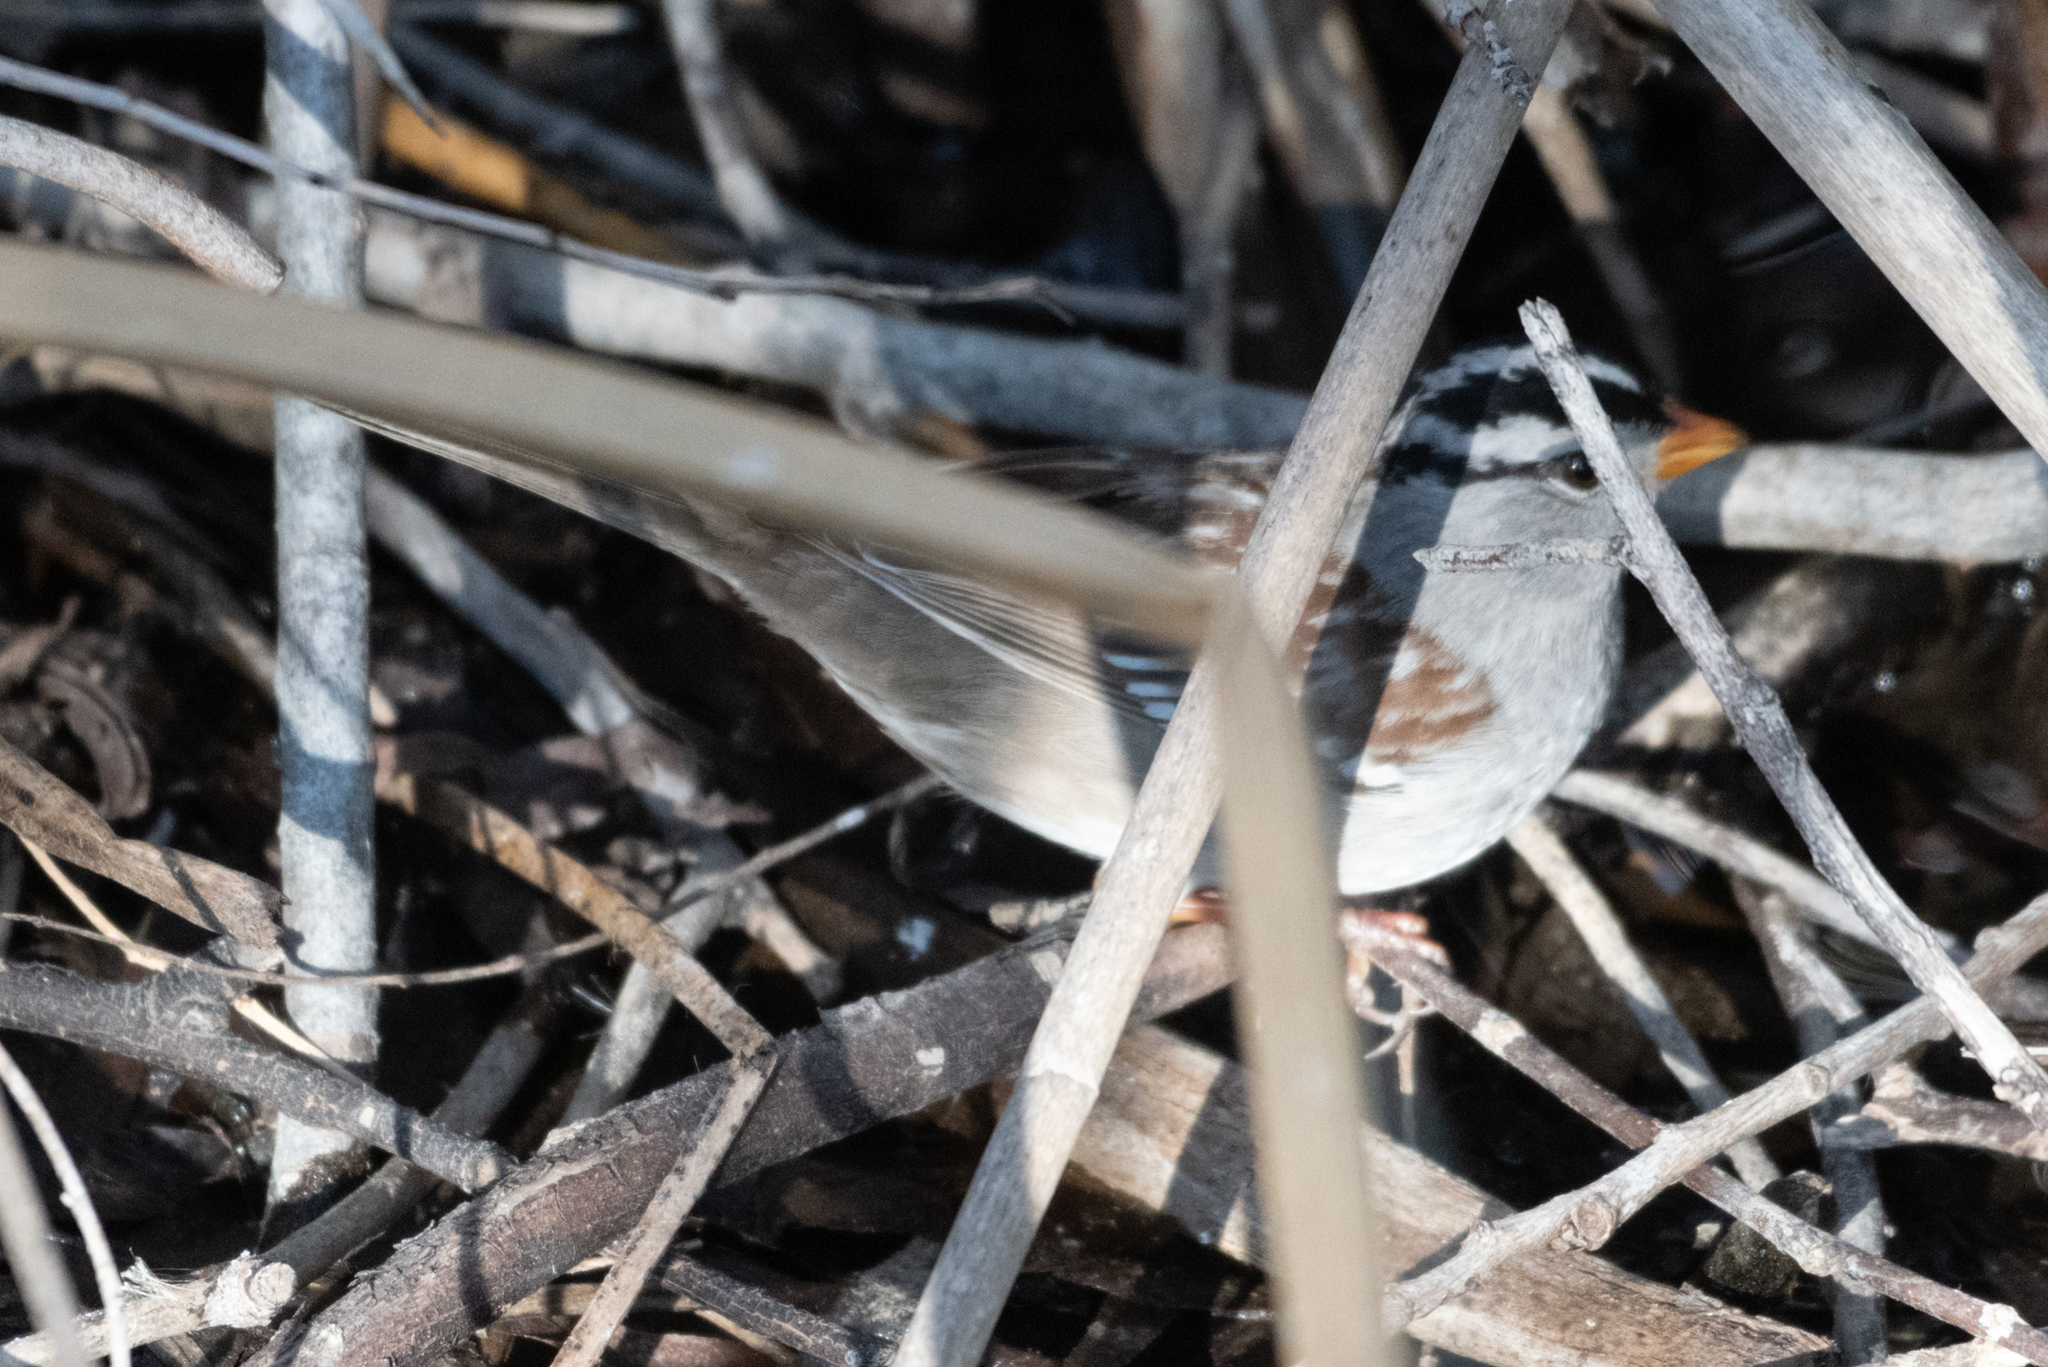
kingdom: Animalia
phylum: Chordata
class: Aves
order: Passeriformes
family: Passerellidae
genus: Zonotrichia
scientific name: Zonotrichia leucophrys
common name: White-crowned sparrow
